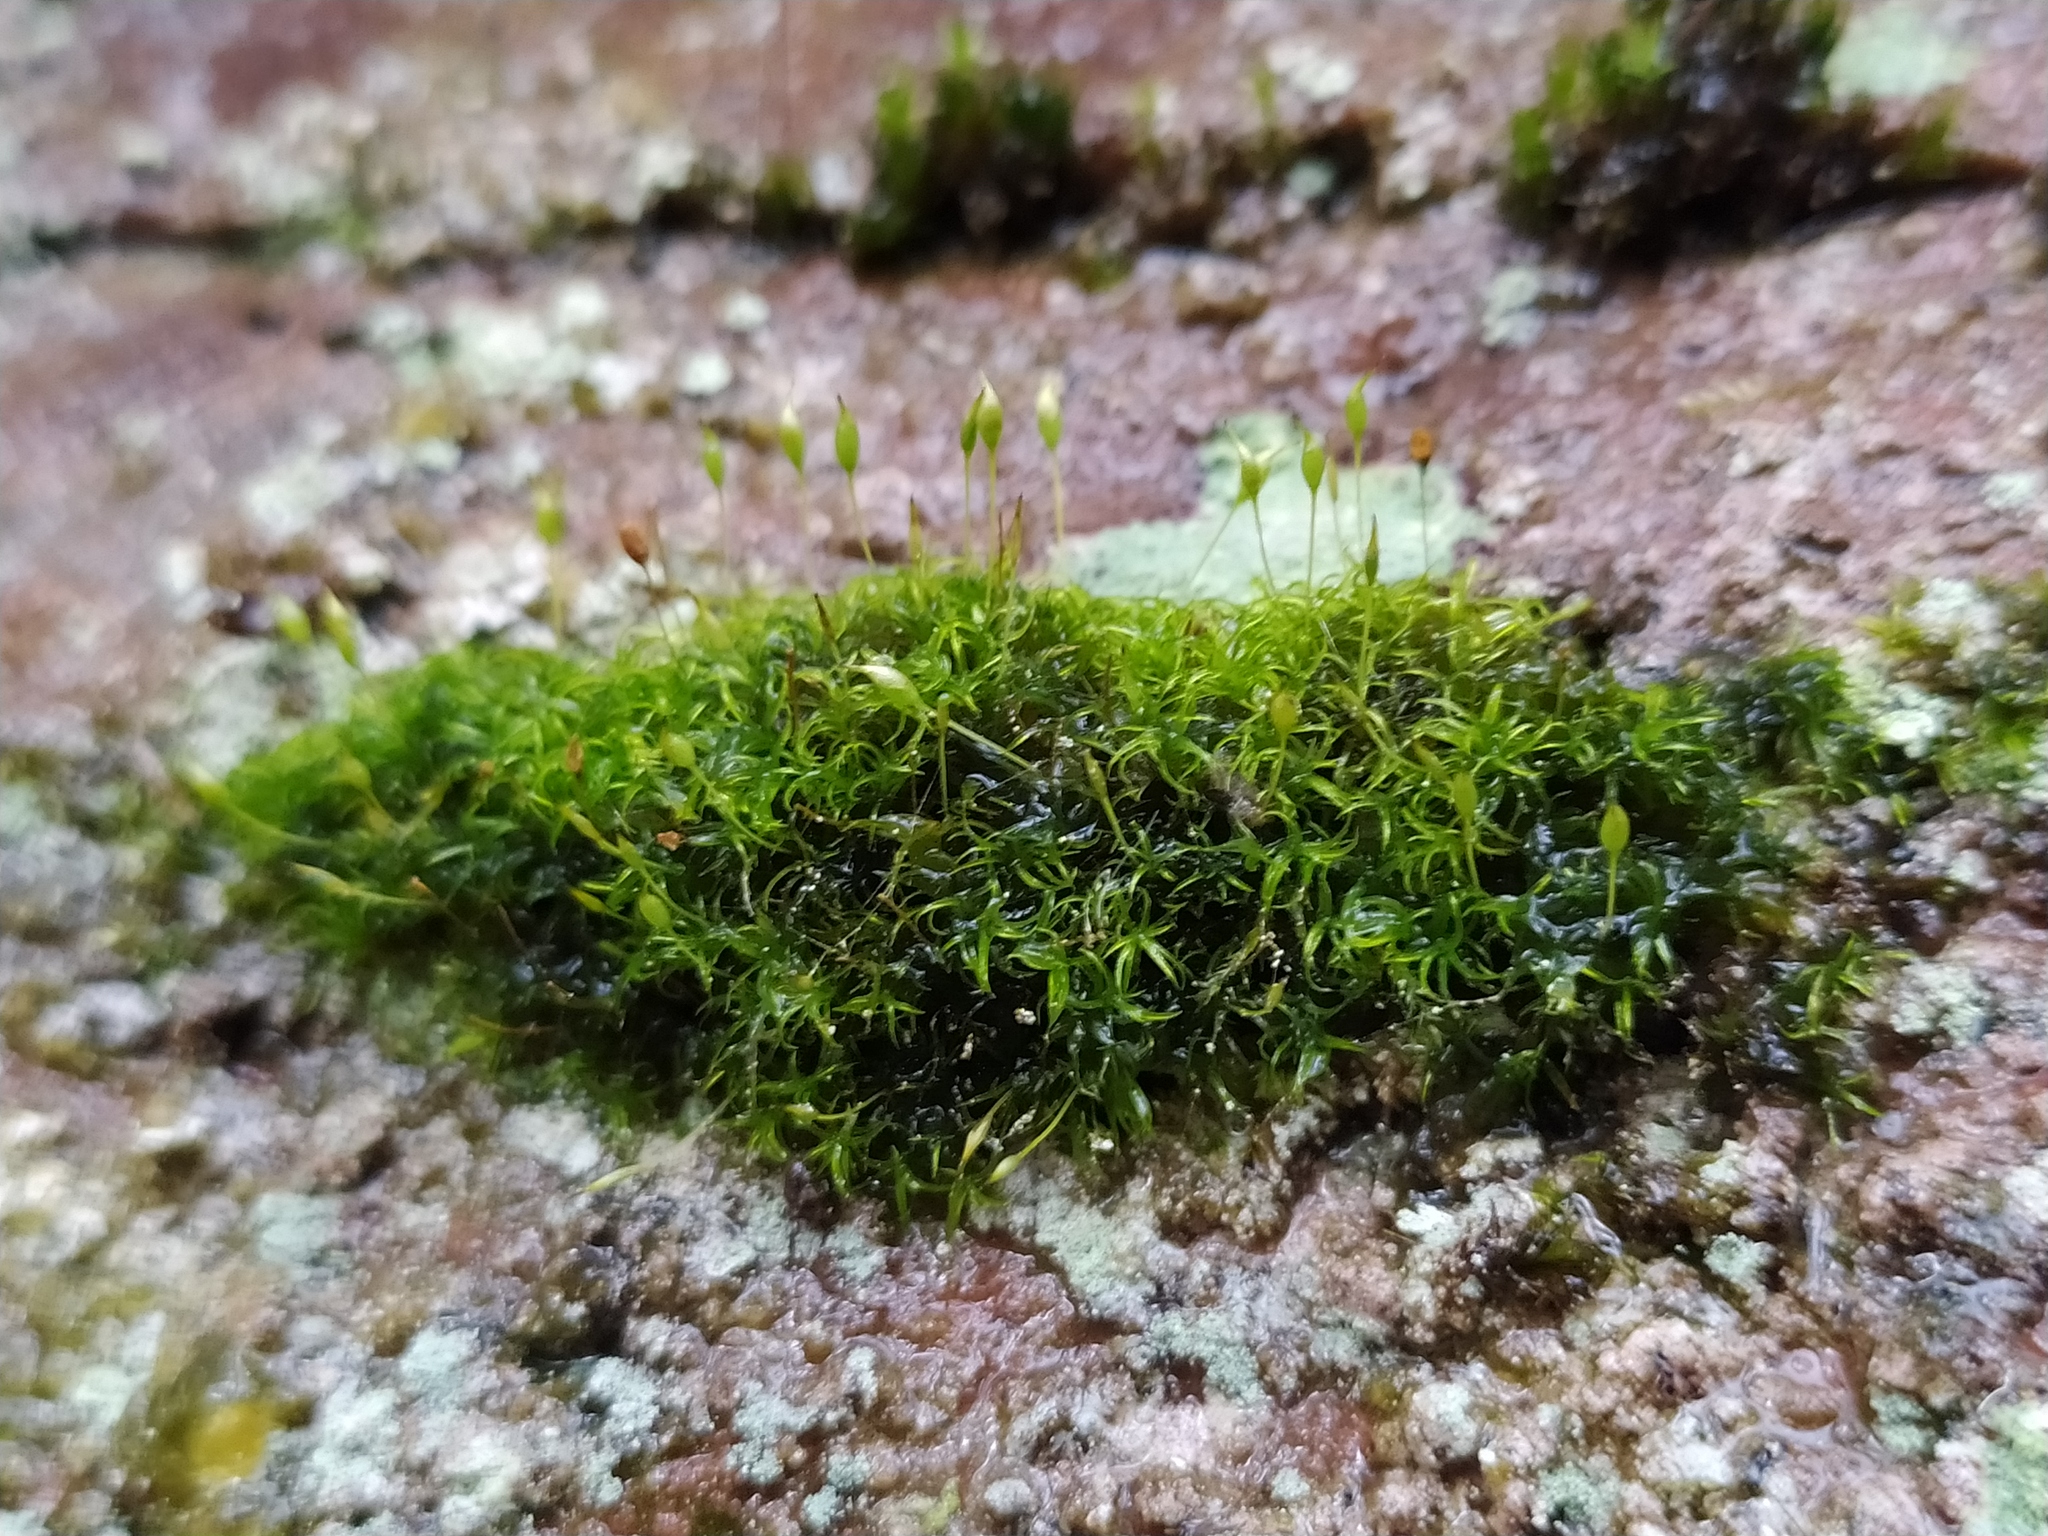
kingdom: Plantae
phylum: Bryophyta
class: Bryopsida
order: Dicranales
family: Rhabdoweisiaceae
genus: Dicranoweisia
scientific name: Dicranoweisia cirrata
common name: Common pincushion
